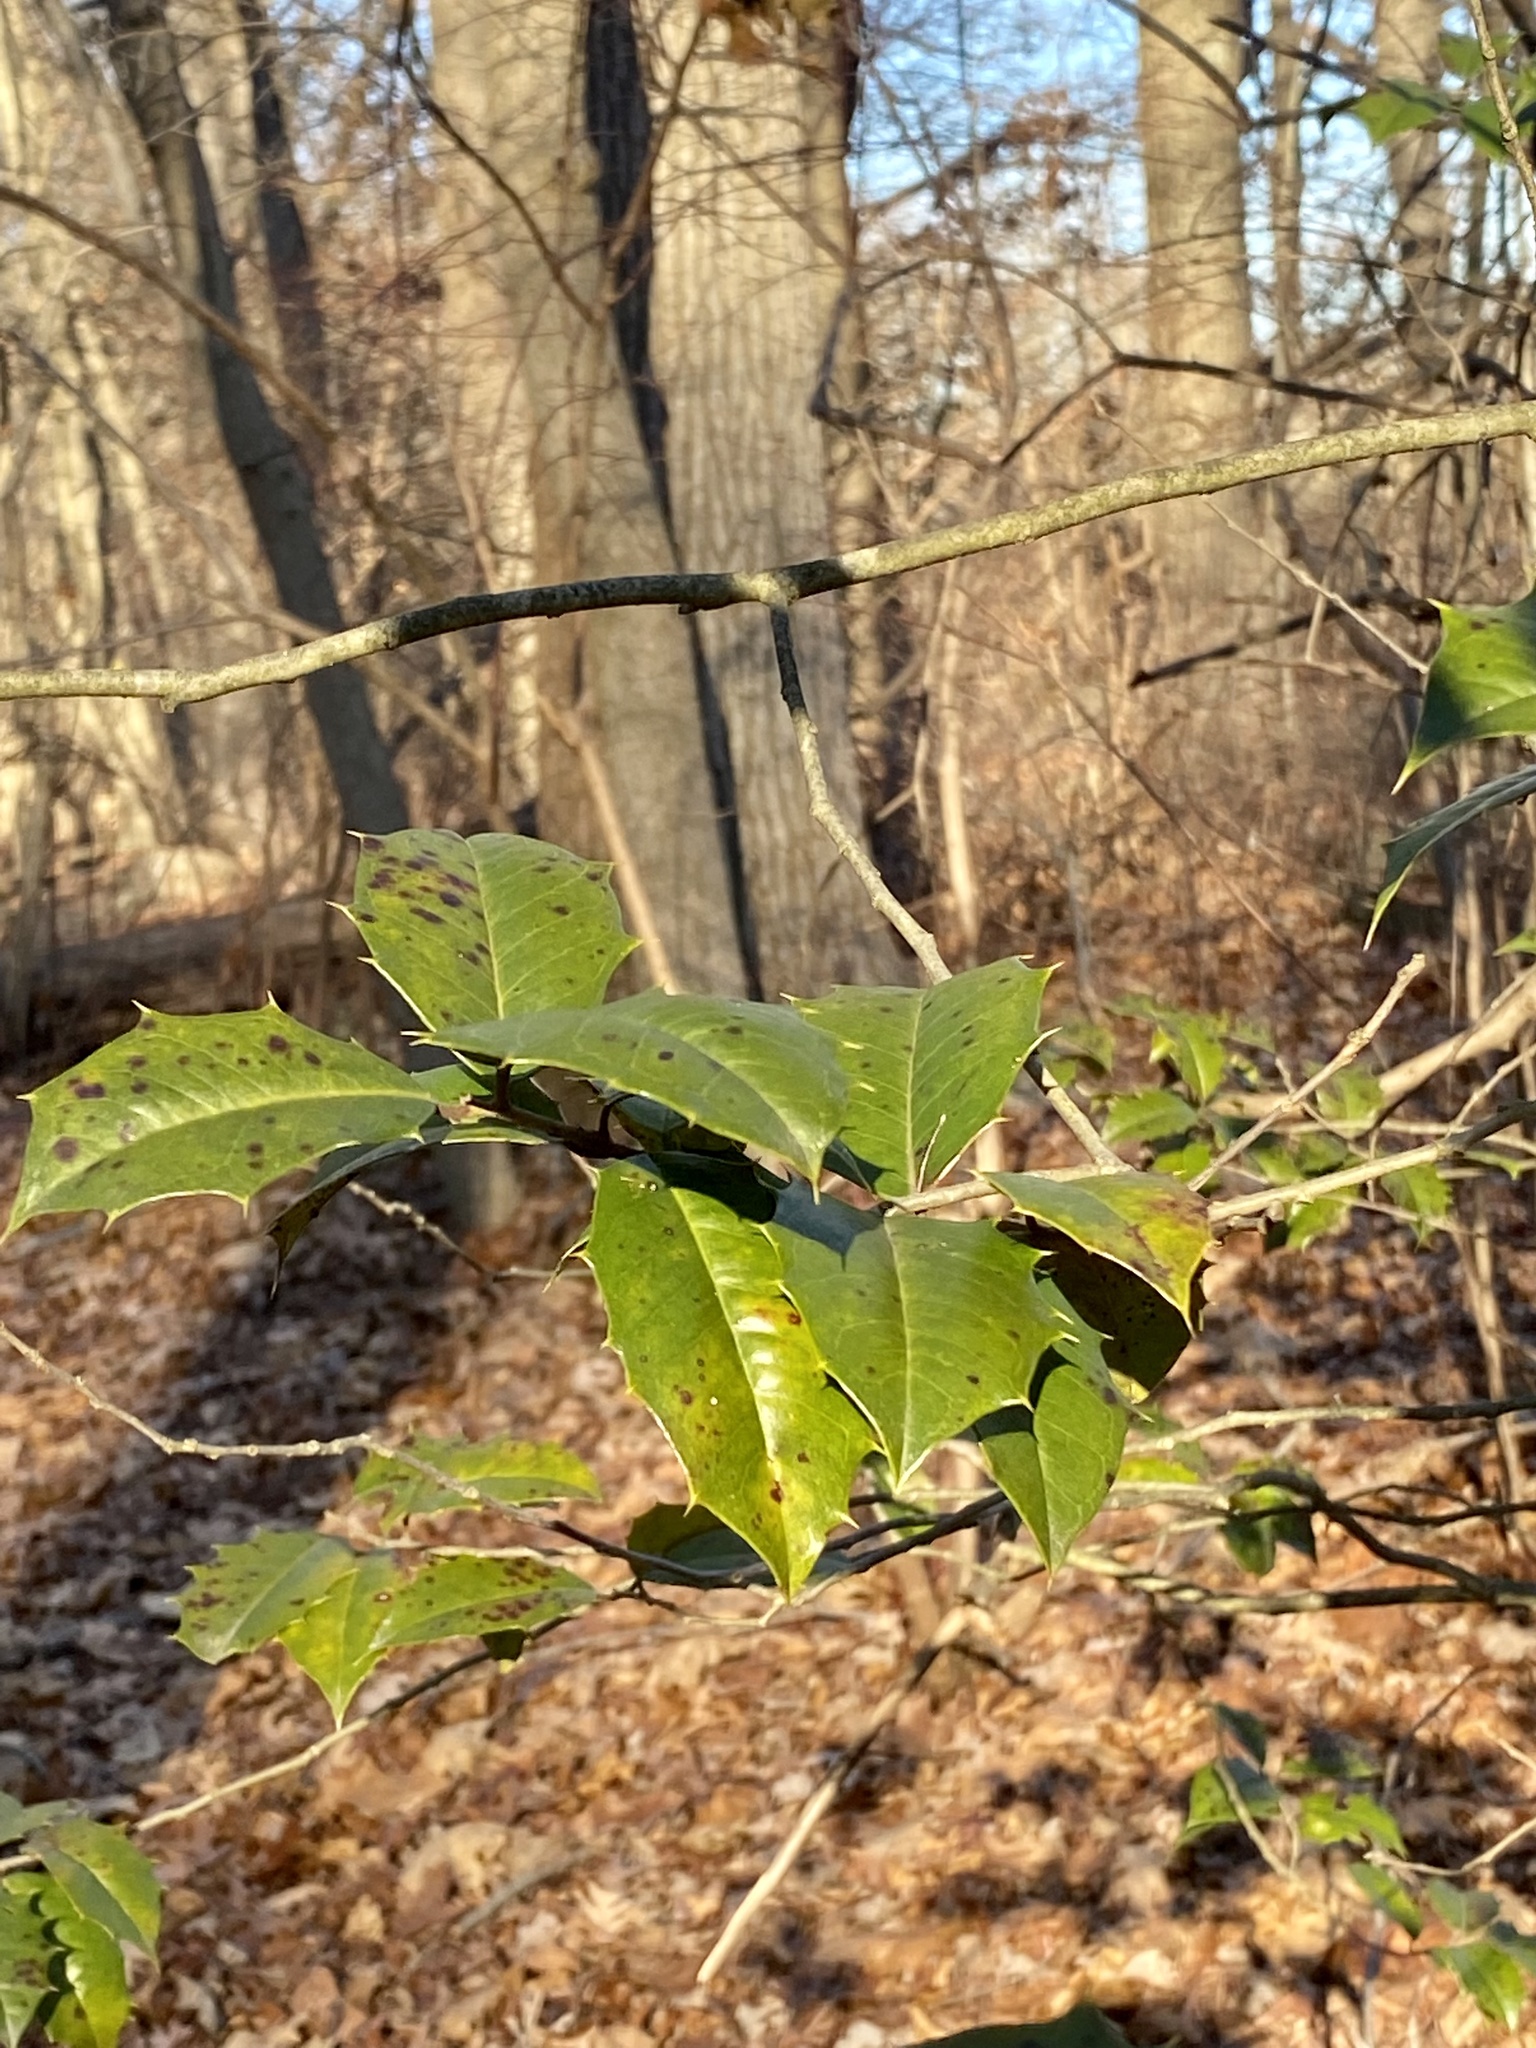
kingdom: Plantae
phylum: Tracheophyta
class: Magnoliopsida
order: Aquifoliales
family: Aquifoliaceae
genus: Ilex
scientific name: Ilex opaca
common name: American holly
